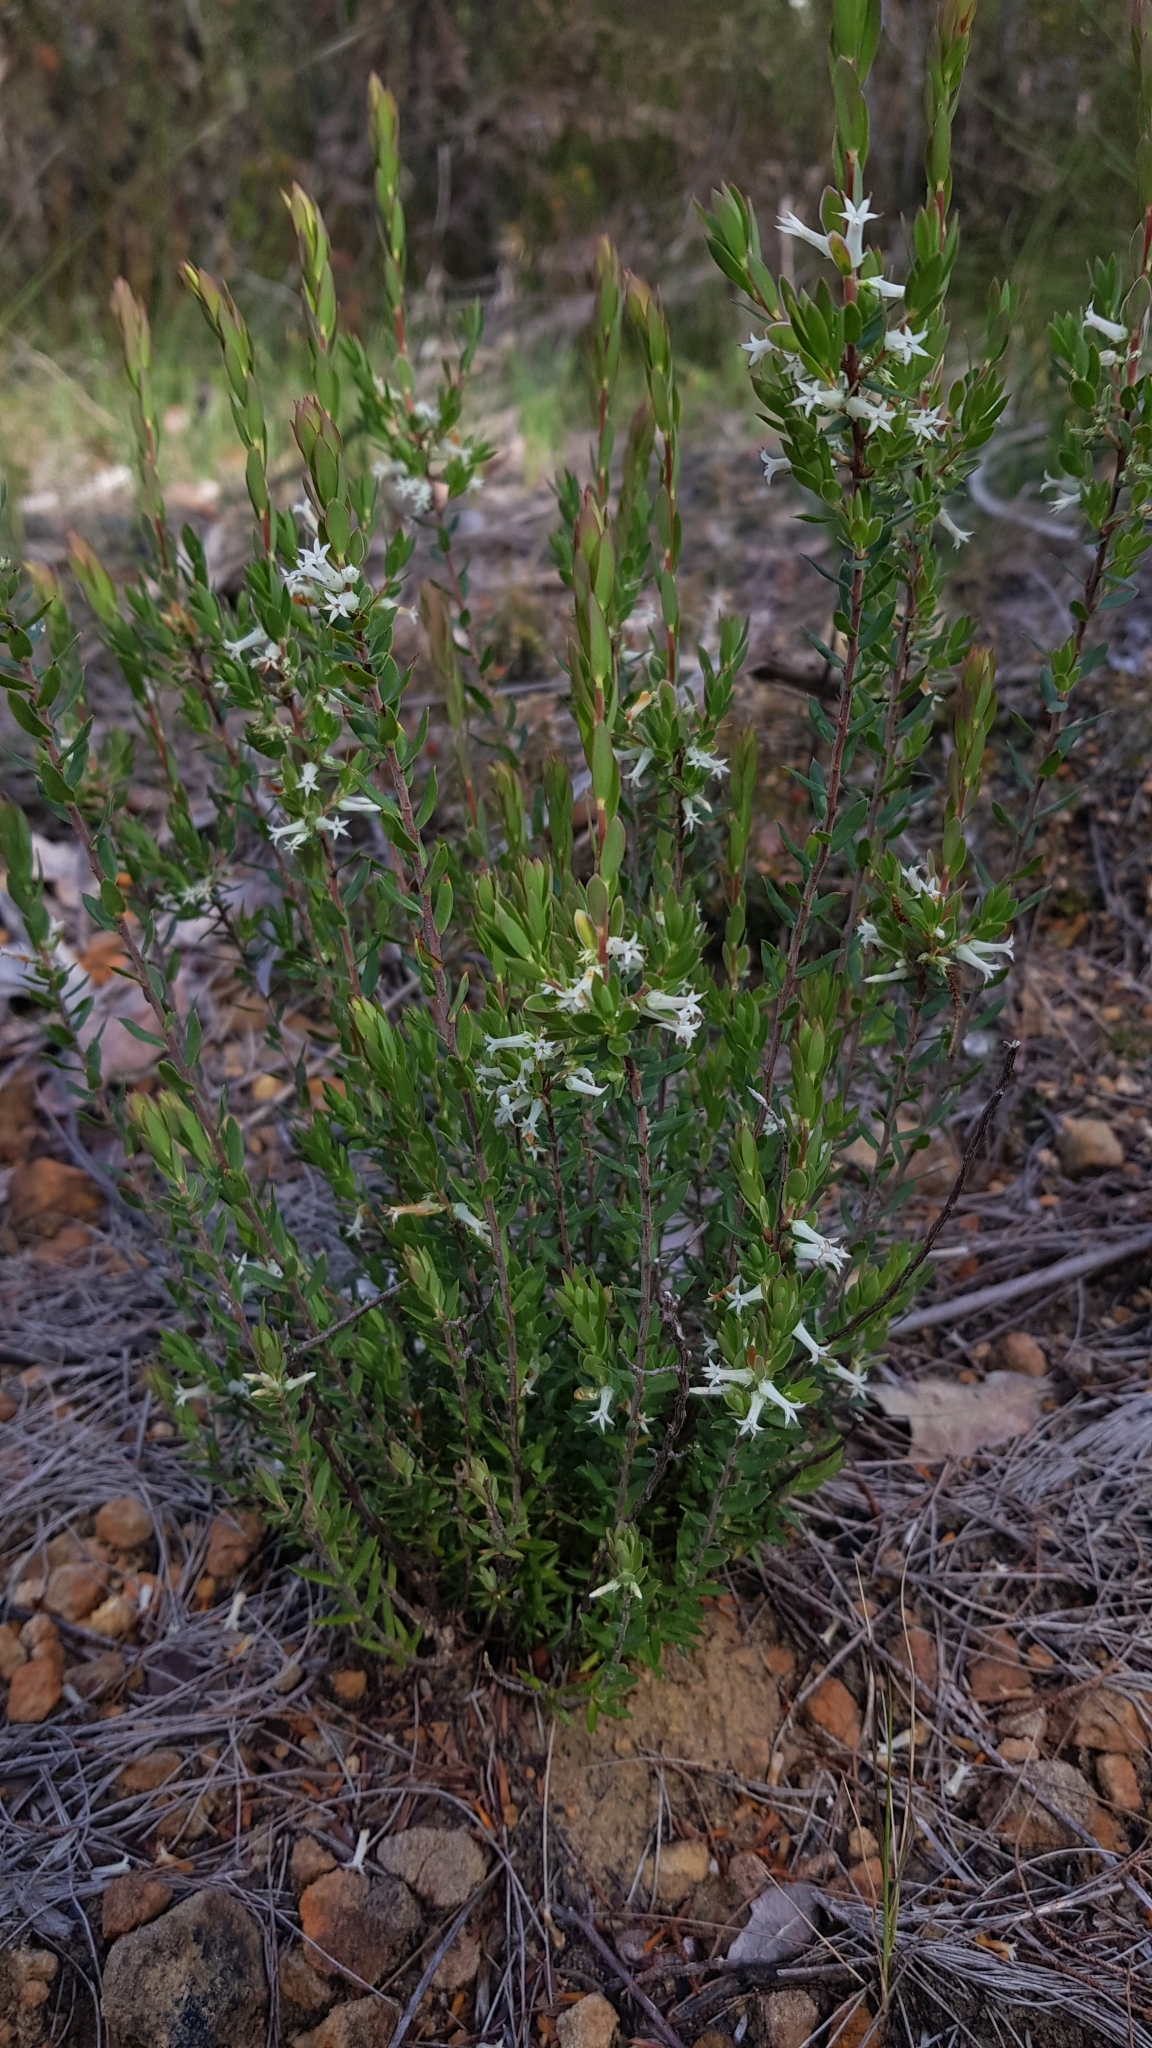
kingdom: Plantae
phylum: Tracheophyta
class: Magnoliopsida
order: Ericales
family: Ericaceae
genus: Brachyloma
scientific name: Brachyloma daphnoides
